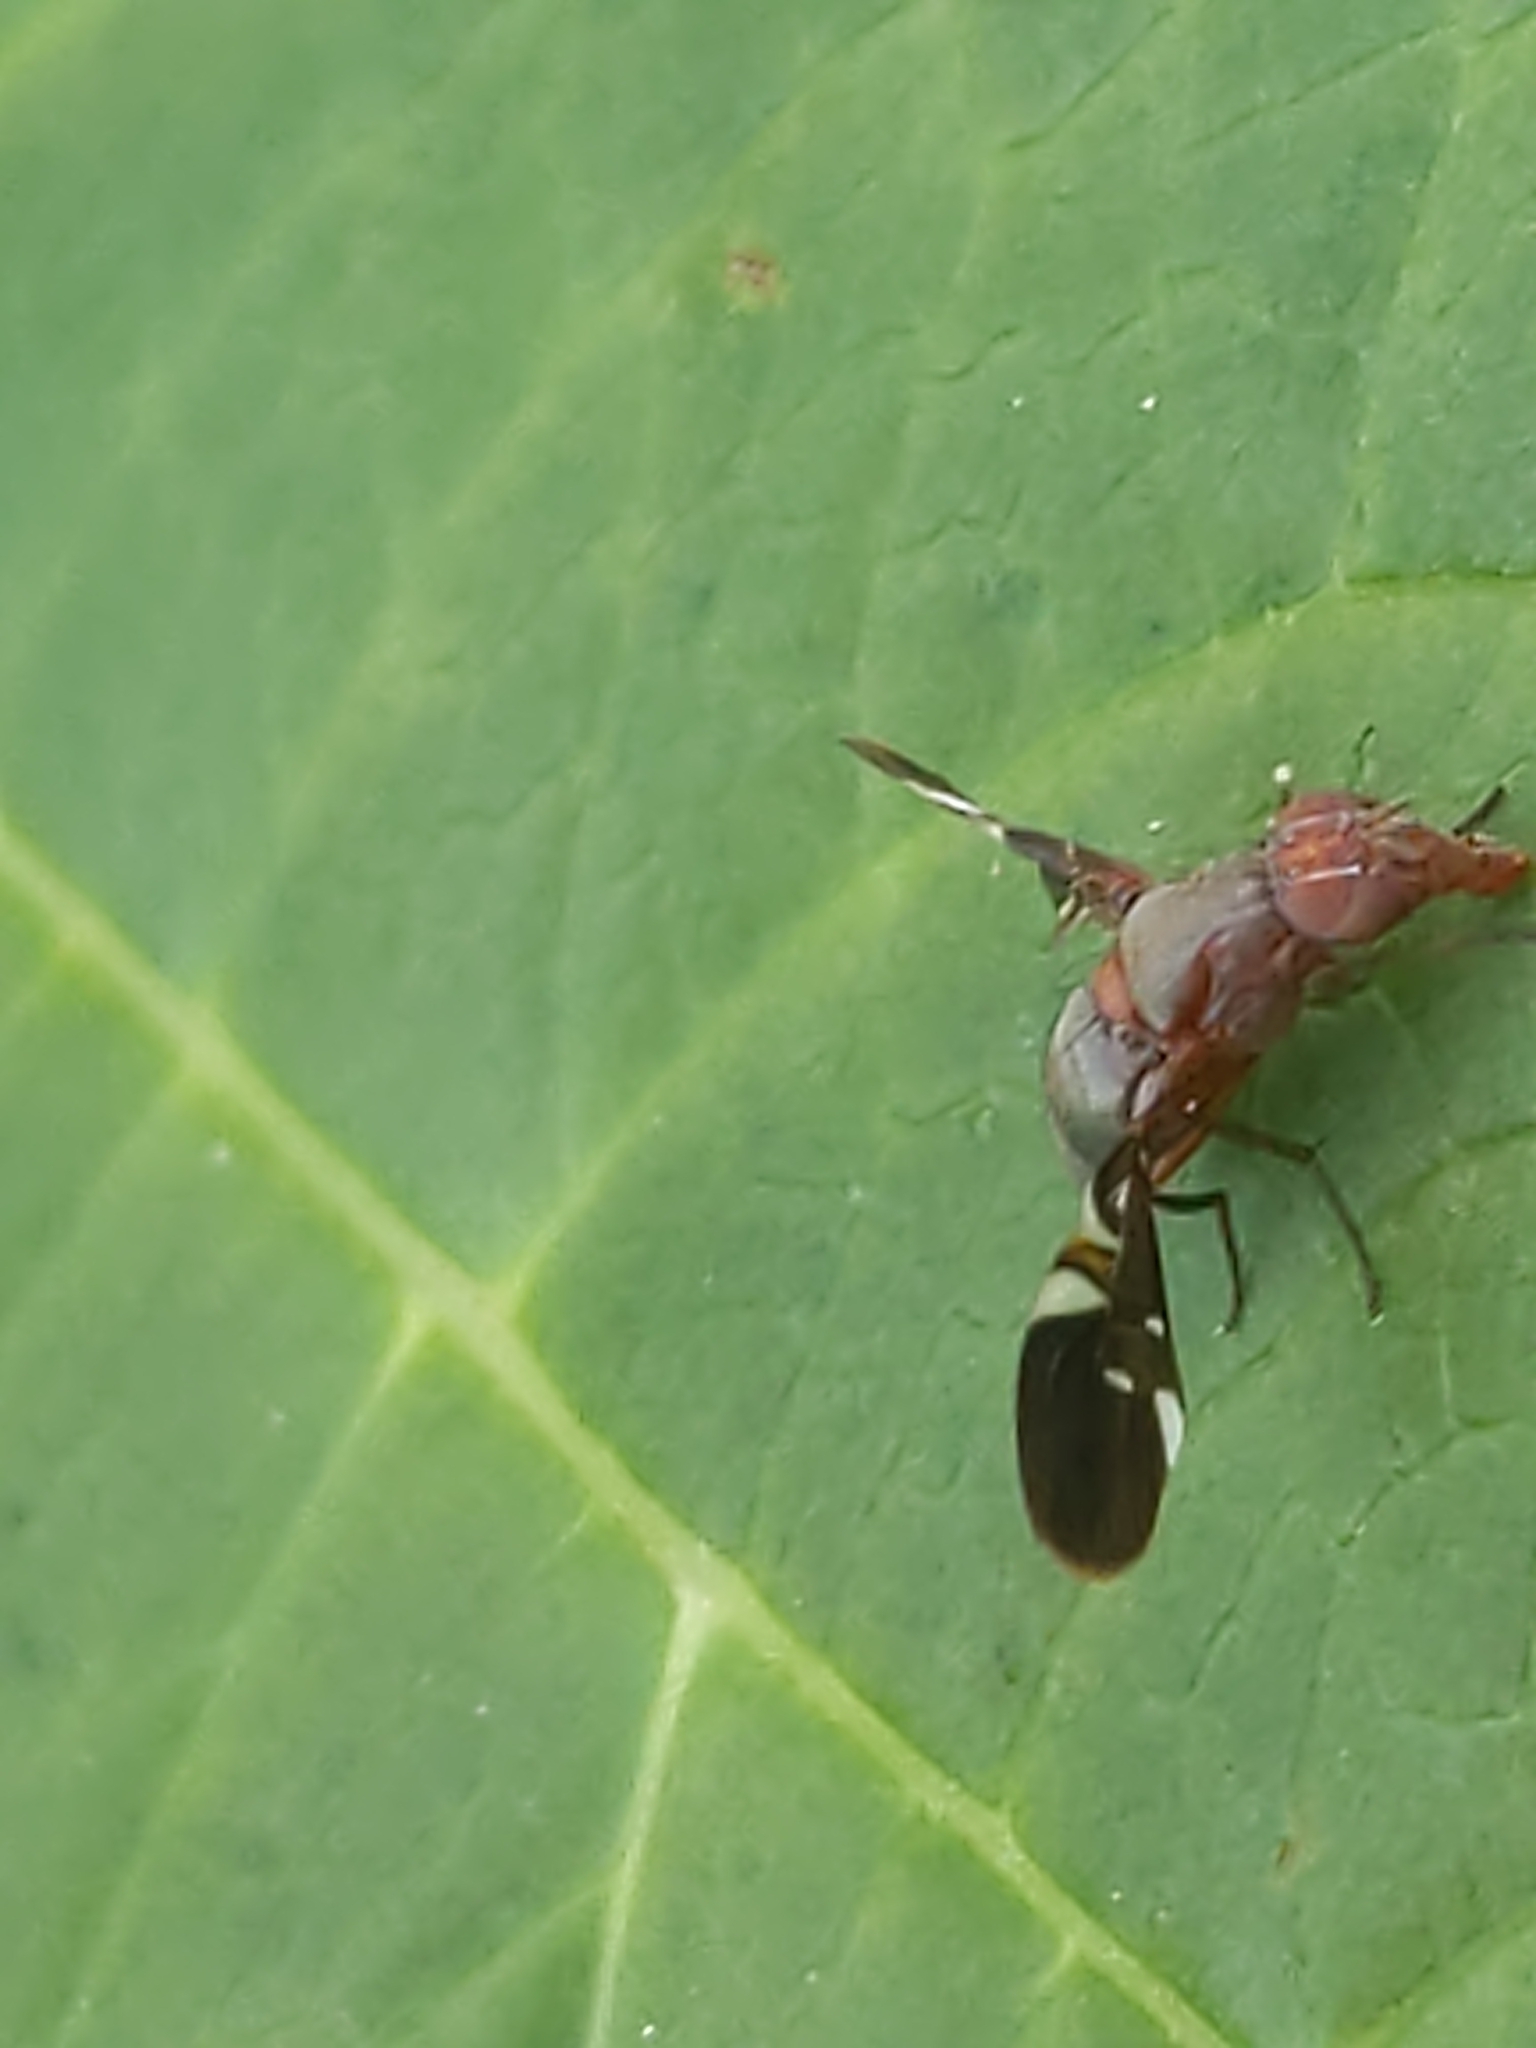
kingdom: Animalia
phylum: Arthropoda
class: Insecta
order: Diptera
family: Ulidiidae
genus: Delphinia
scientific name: Delphinia picta
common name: Common picture-winged fly
